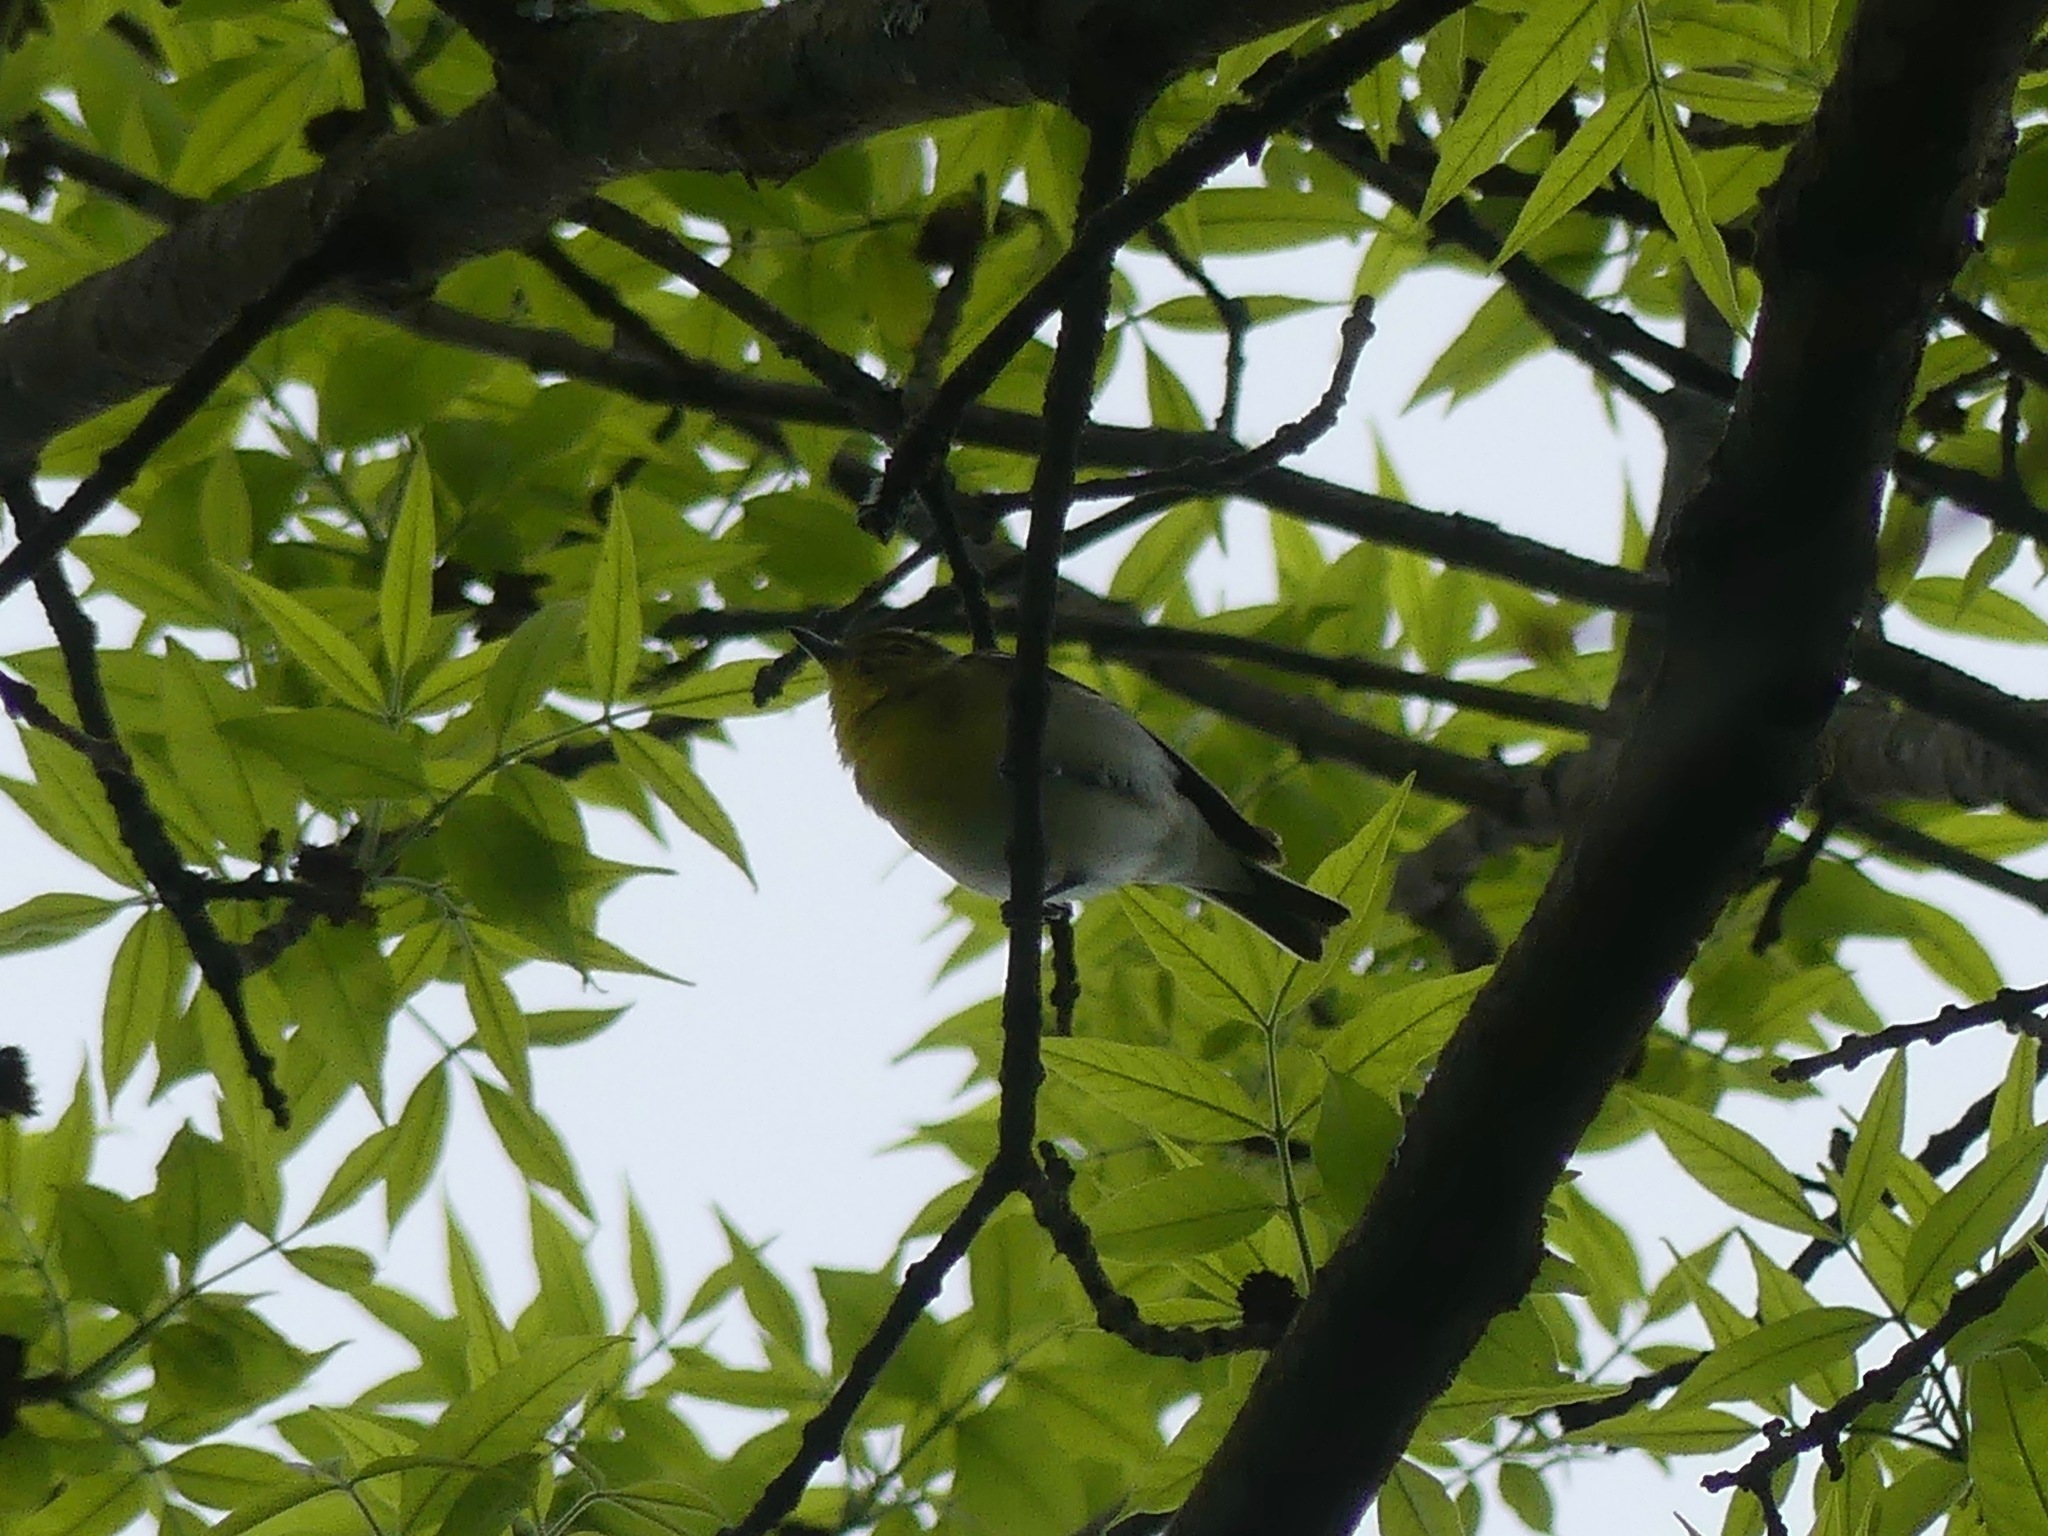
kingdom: Animalia
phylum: Chordata
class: Aves
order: Passeriformes
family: Vireonidae
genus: Vireo
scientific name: Vireo flavifrons
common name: Yellow-throated vireo
